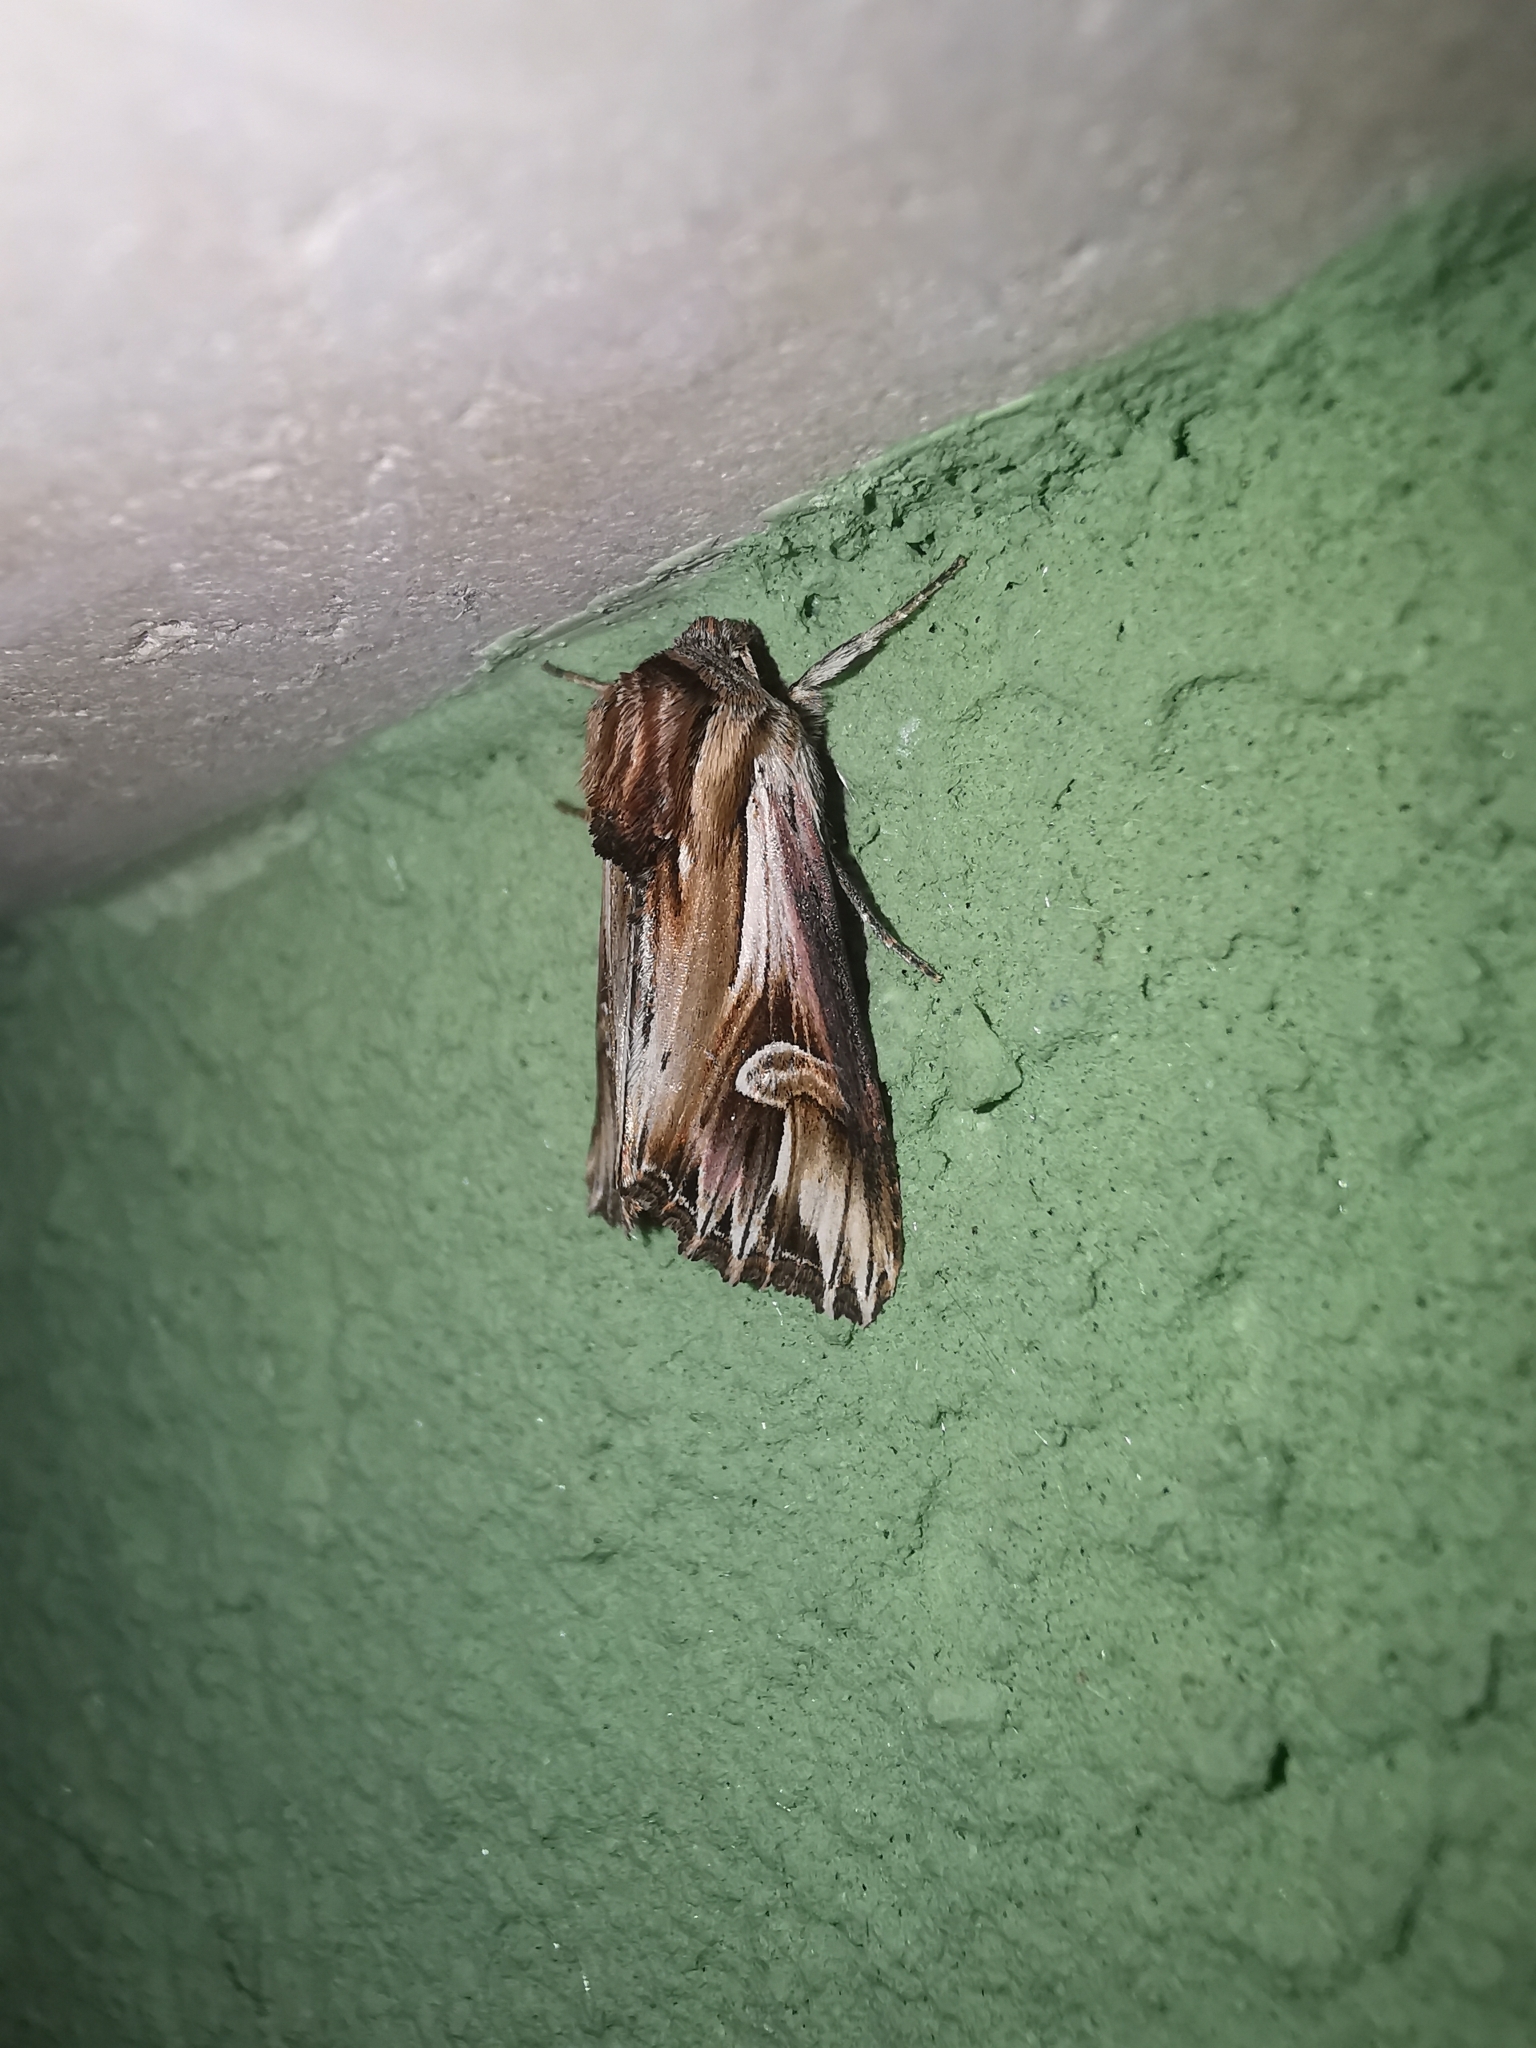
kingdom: Animalia
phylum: Arthropoda
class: Insecta
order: Lepidoptera
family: Noctuidae
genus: Actinotia
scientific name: Actinotia polyodon
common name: Purple cloud
